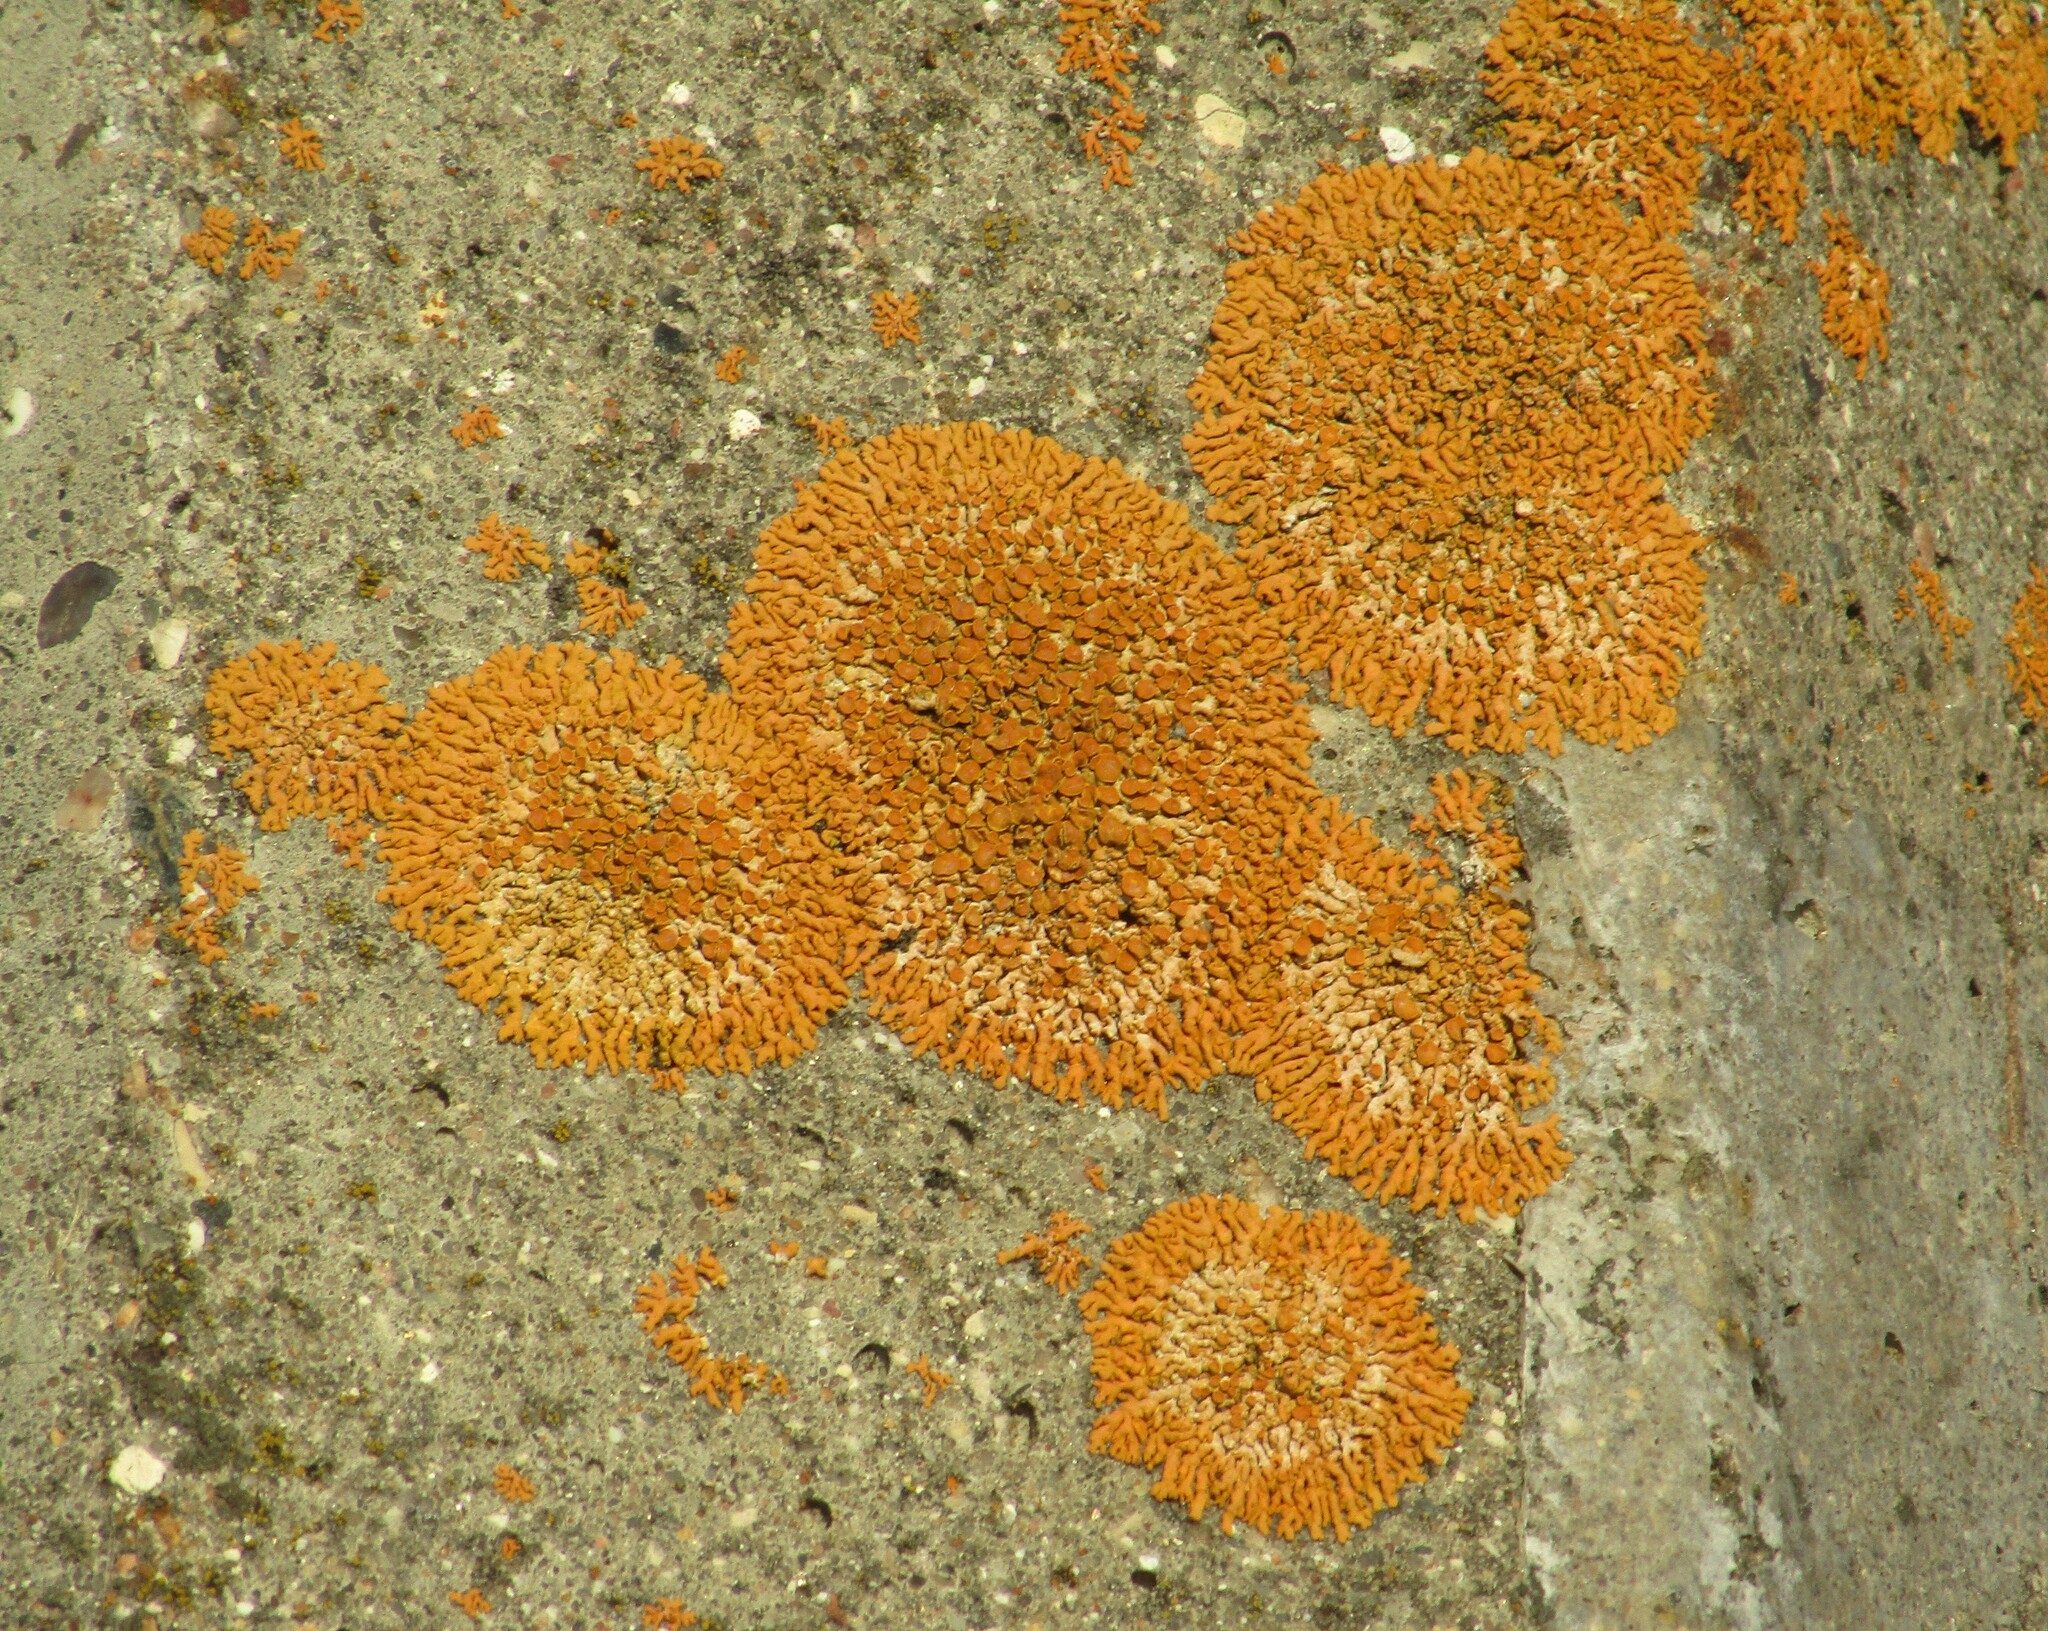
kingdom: Fungi
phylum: Ascomycota
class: Lecanoromycetes
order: Teloschistales
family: Teloschistaceae
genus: Xanthoria
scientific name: Xanthoria elegans
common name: Elegant sunburst lichen
